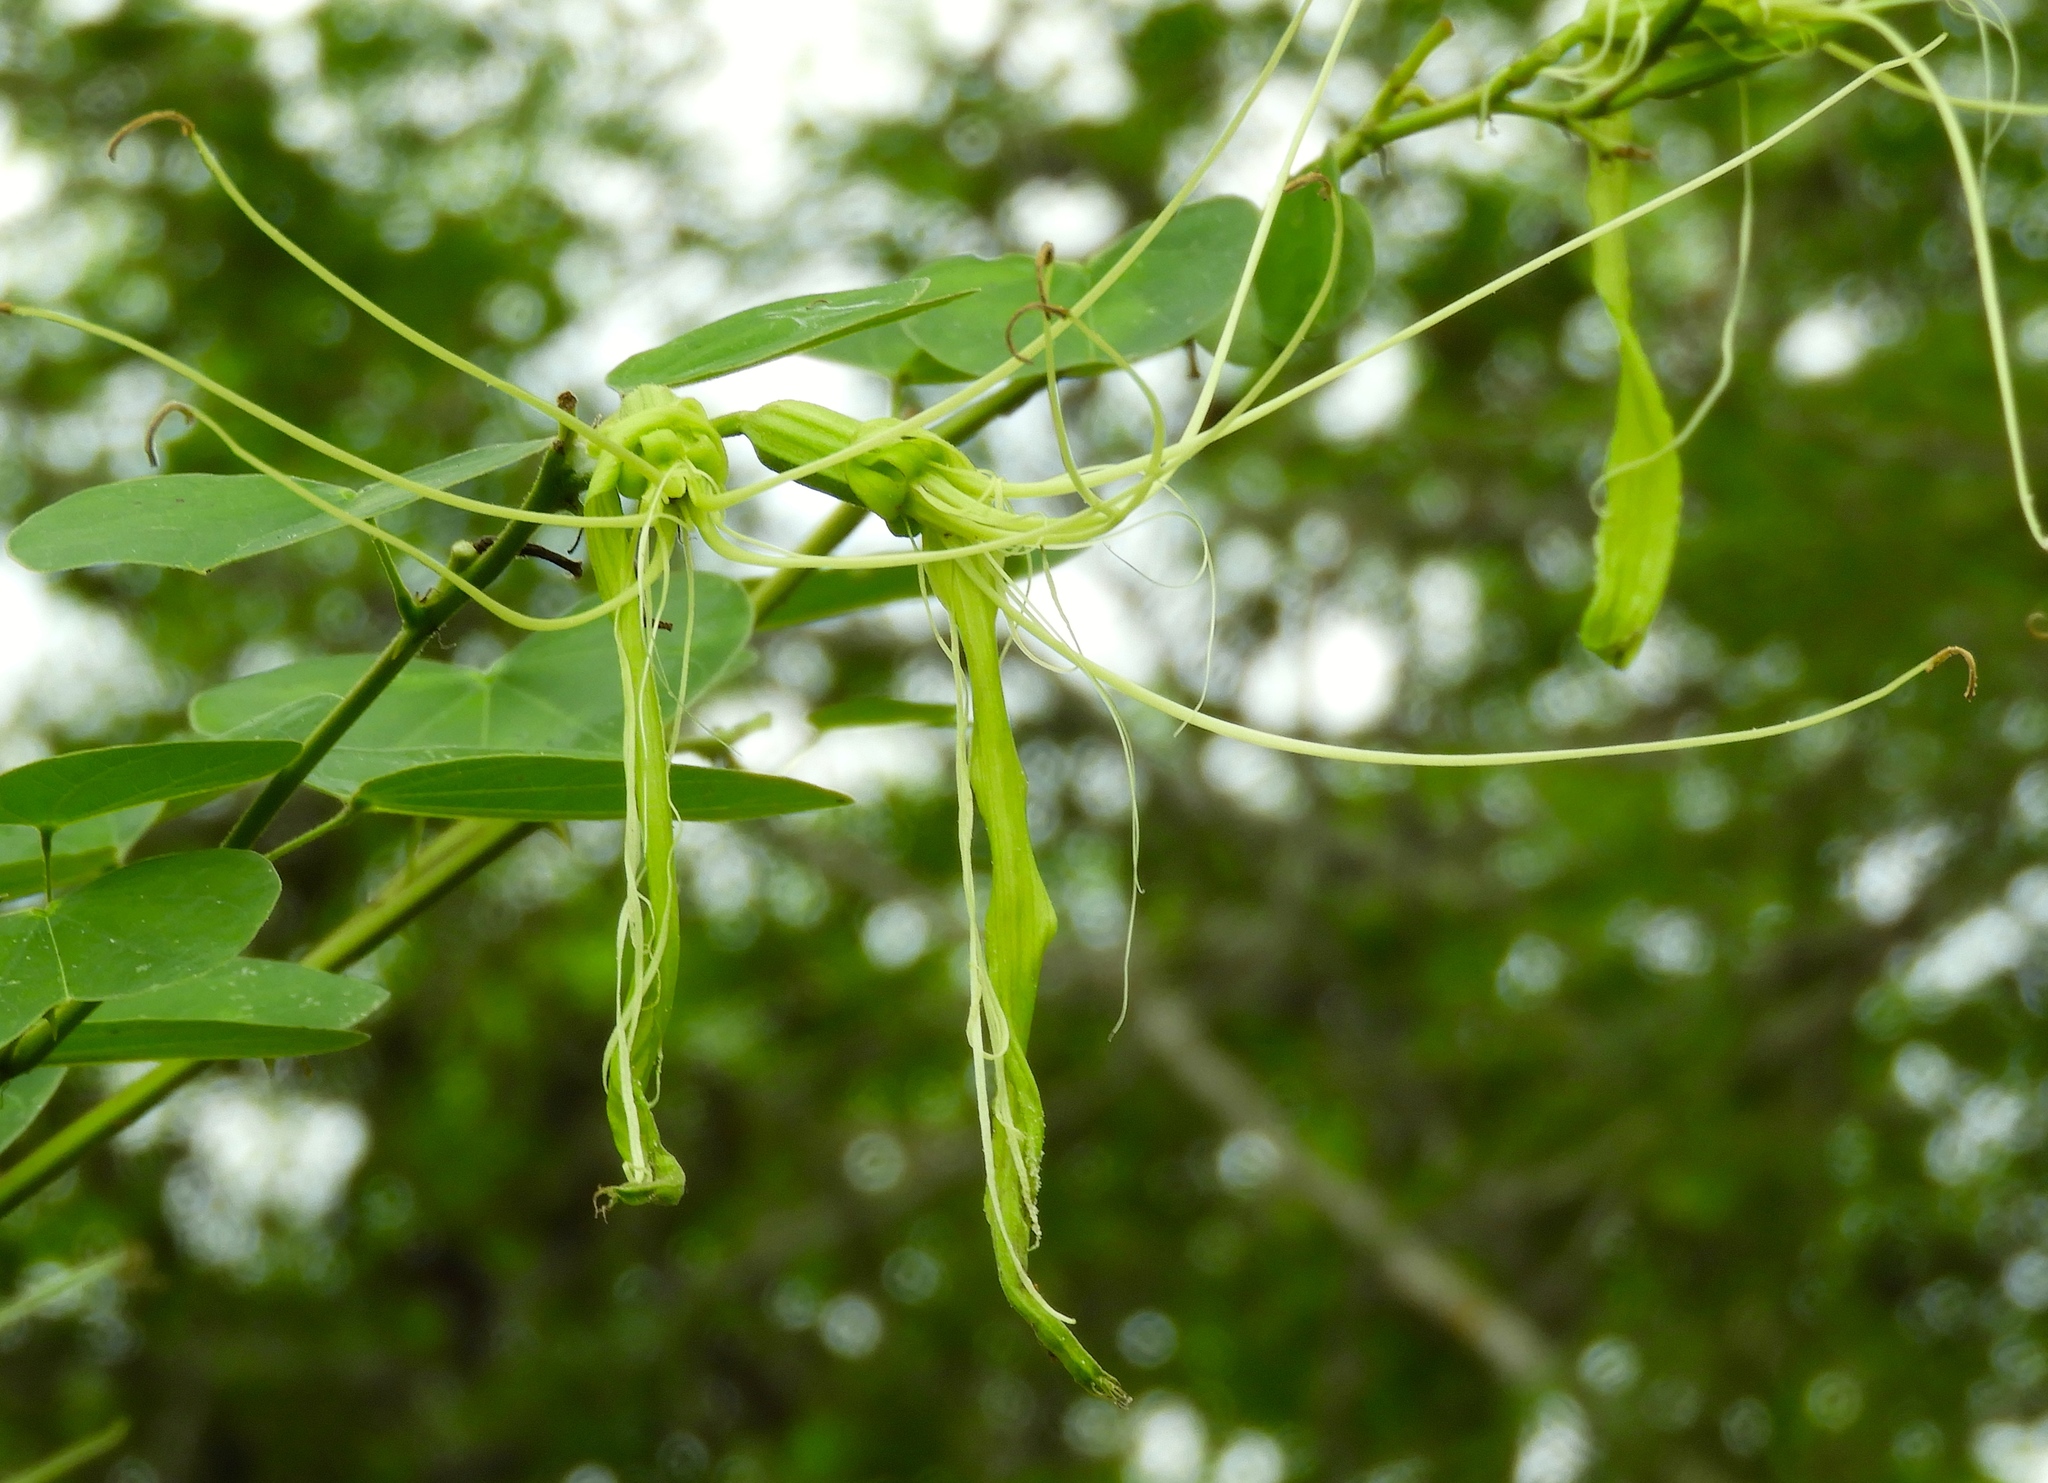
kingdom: Plantae
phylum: Tracheophyta
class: Magnoliopsida
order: Fabales
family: Fabaceae
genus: Bauhinia
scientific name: Bauhinia pauletia
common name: Railway-fence bauhinia
